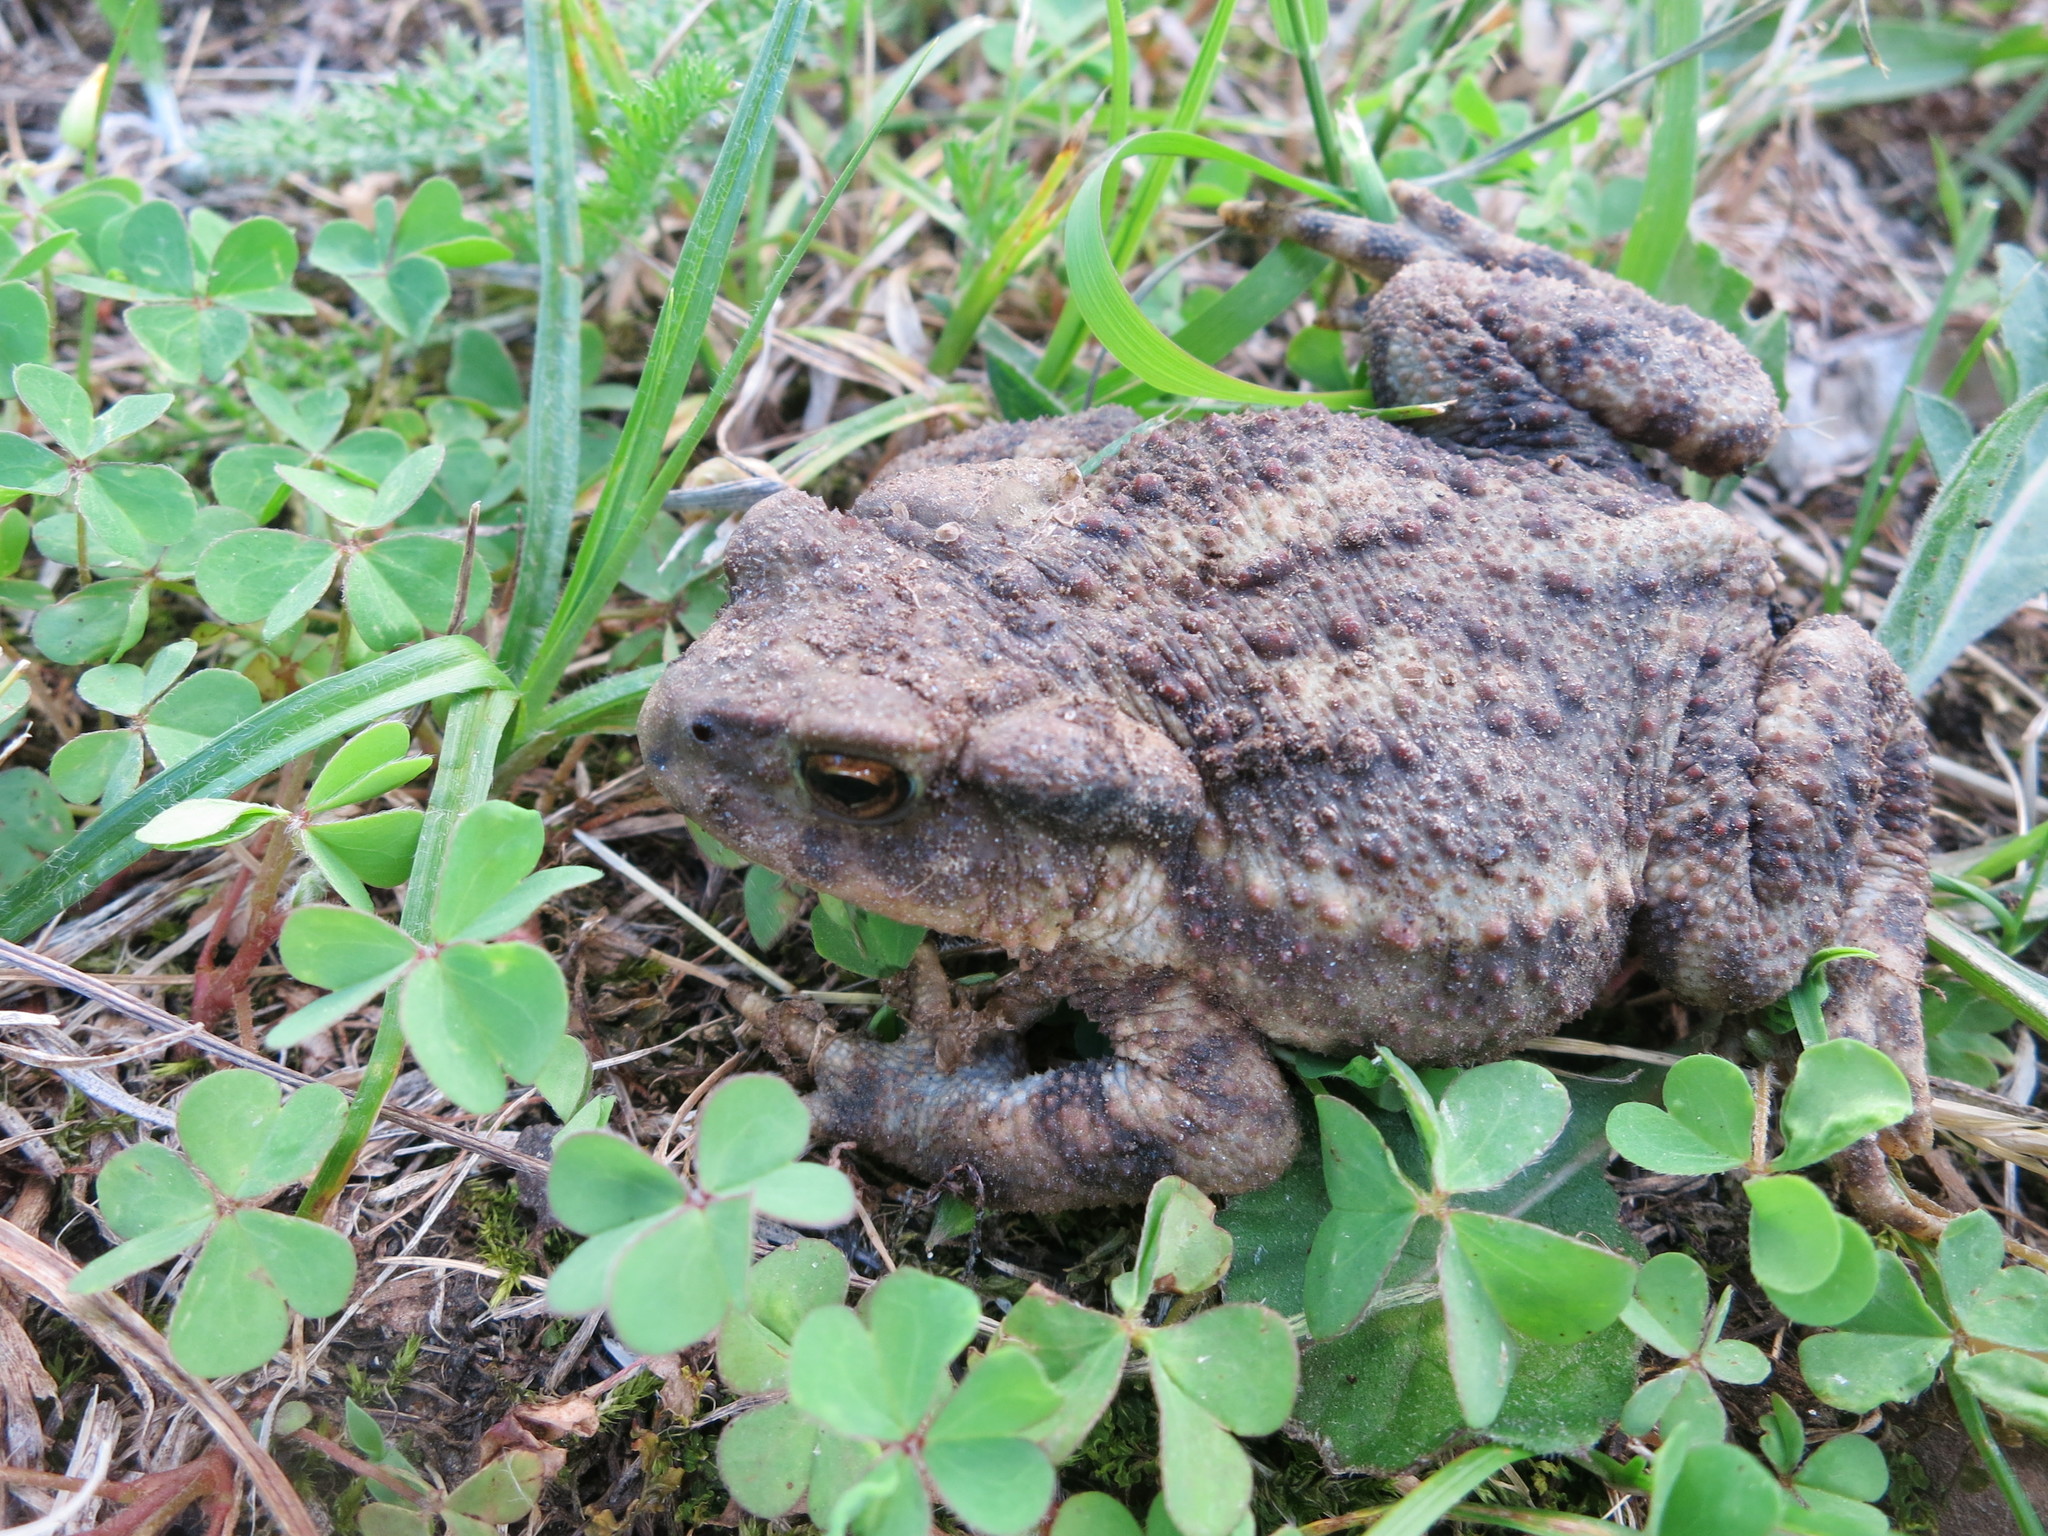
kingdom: Animalia
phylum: Chordata
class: Amphibia
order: Anura
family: Bufonidae
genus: Bufo
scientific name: Bufo bufo
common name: Common toad
